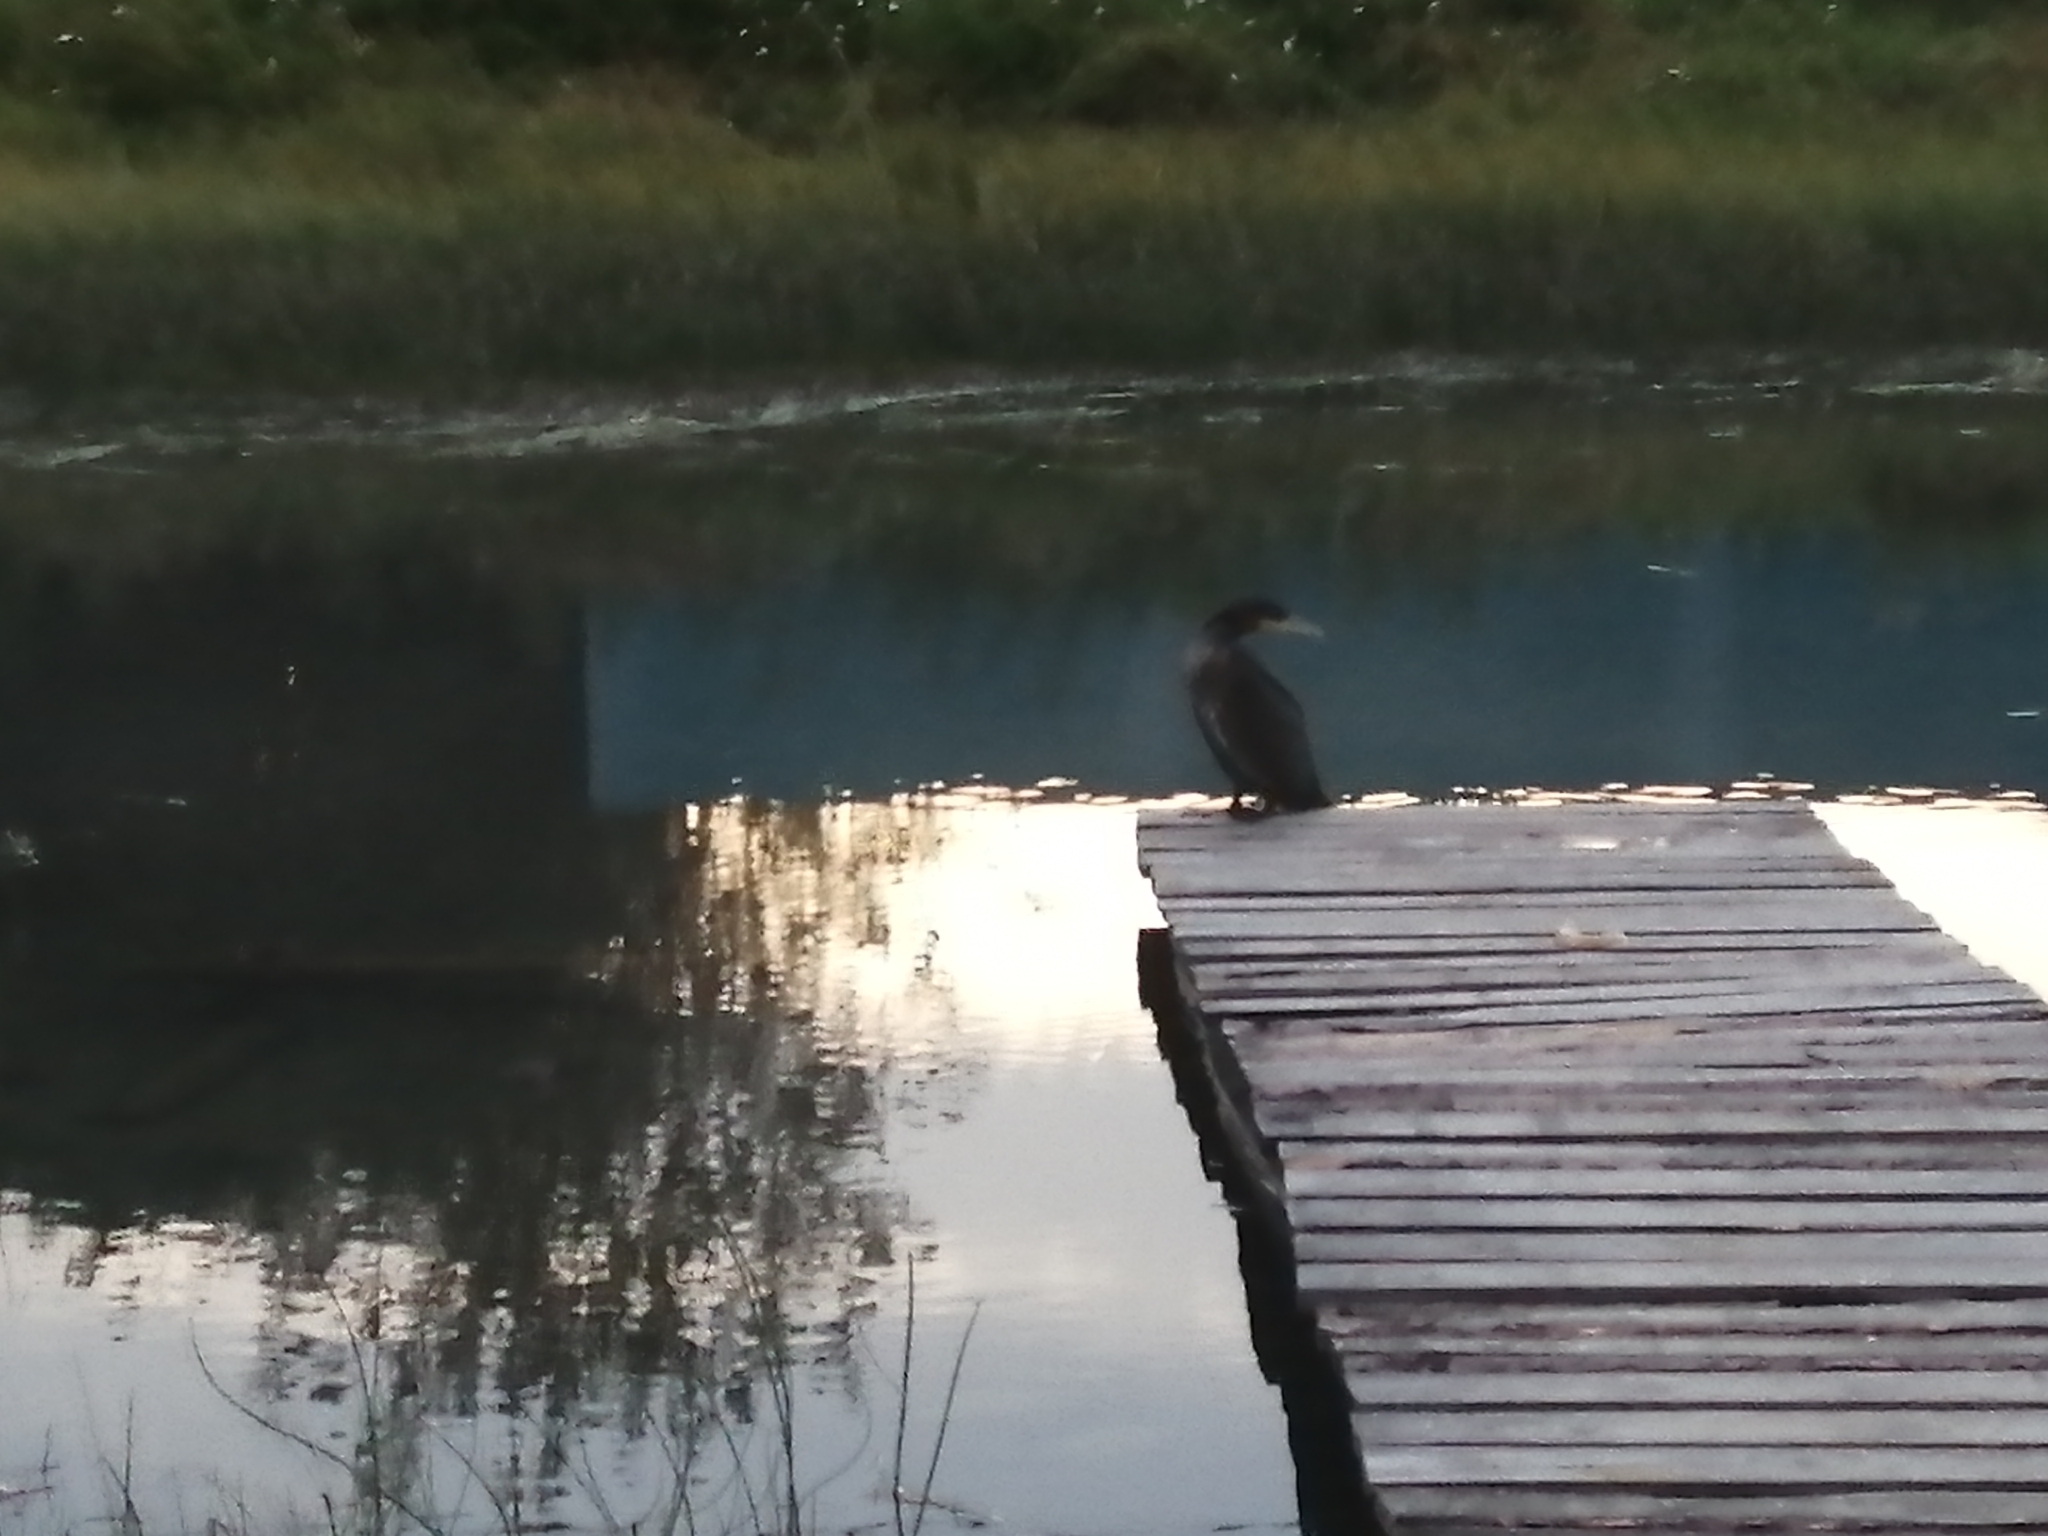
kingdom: Animalia
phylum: Chordata
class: Aves
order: Suliformes
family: Phalacrocoracidae
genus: Phalacrocorax
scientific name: Phalacrocorax carbo
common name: Great cormorant
